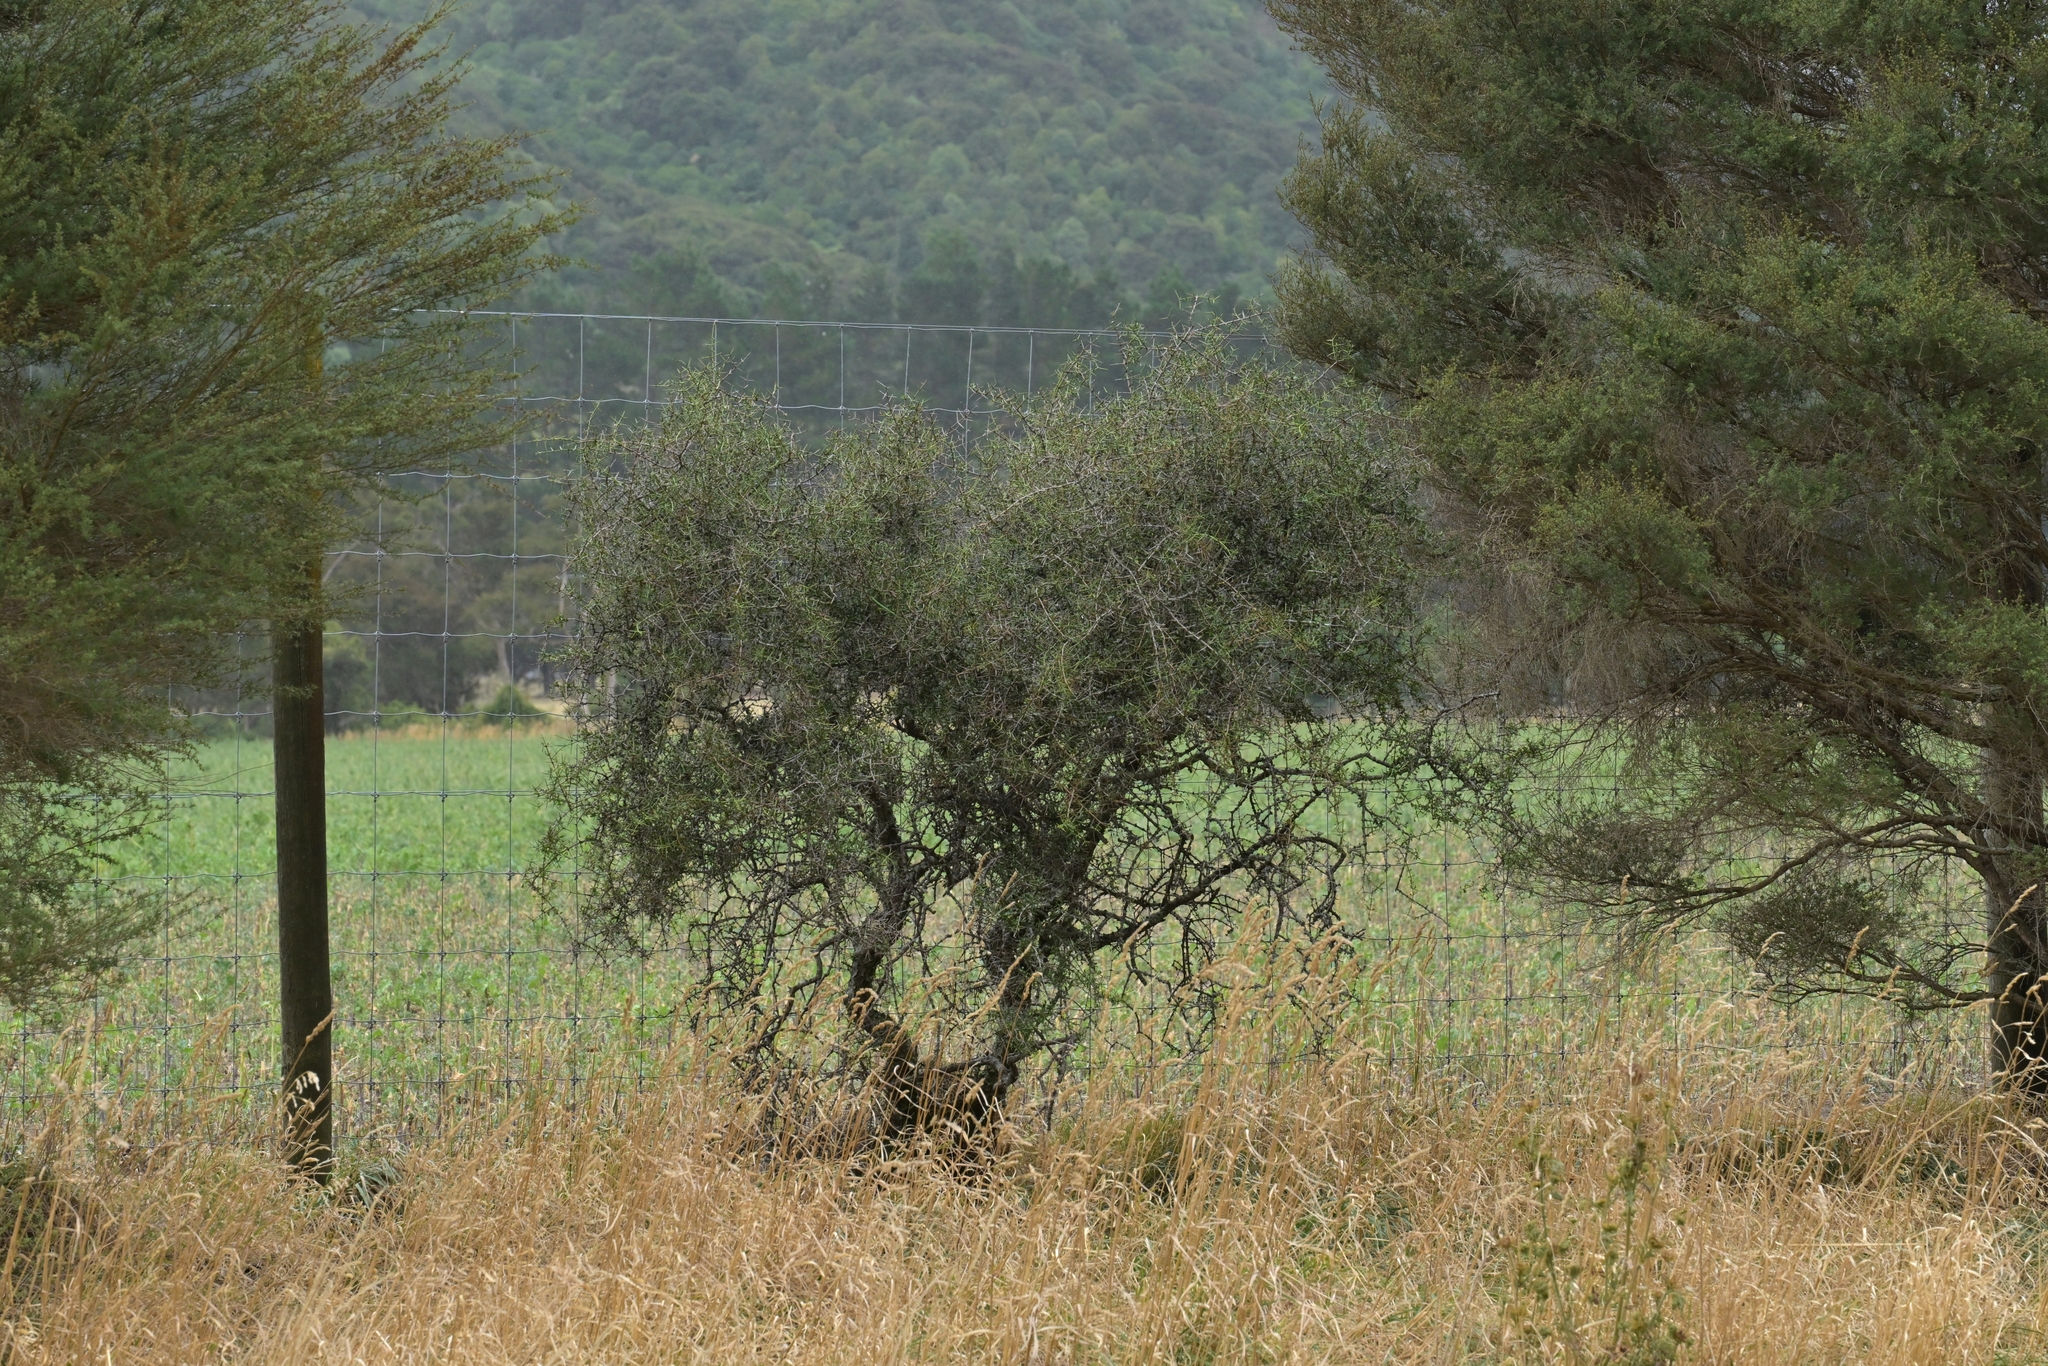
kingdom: Plantae
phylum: Tracheophyta
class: Magnoliopsida
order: Rosales
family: Rhamnaceae
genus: Discaria
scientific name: Discaria toumatou
